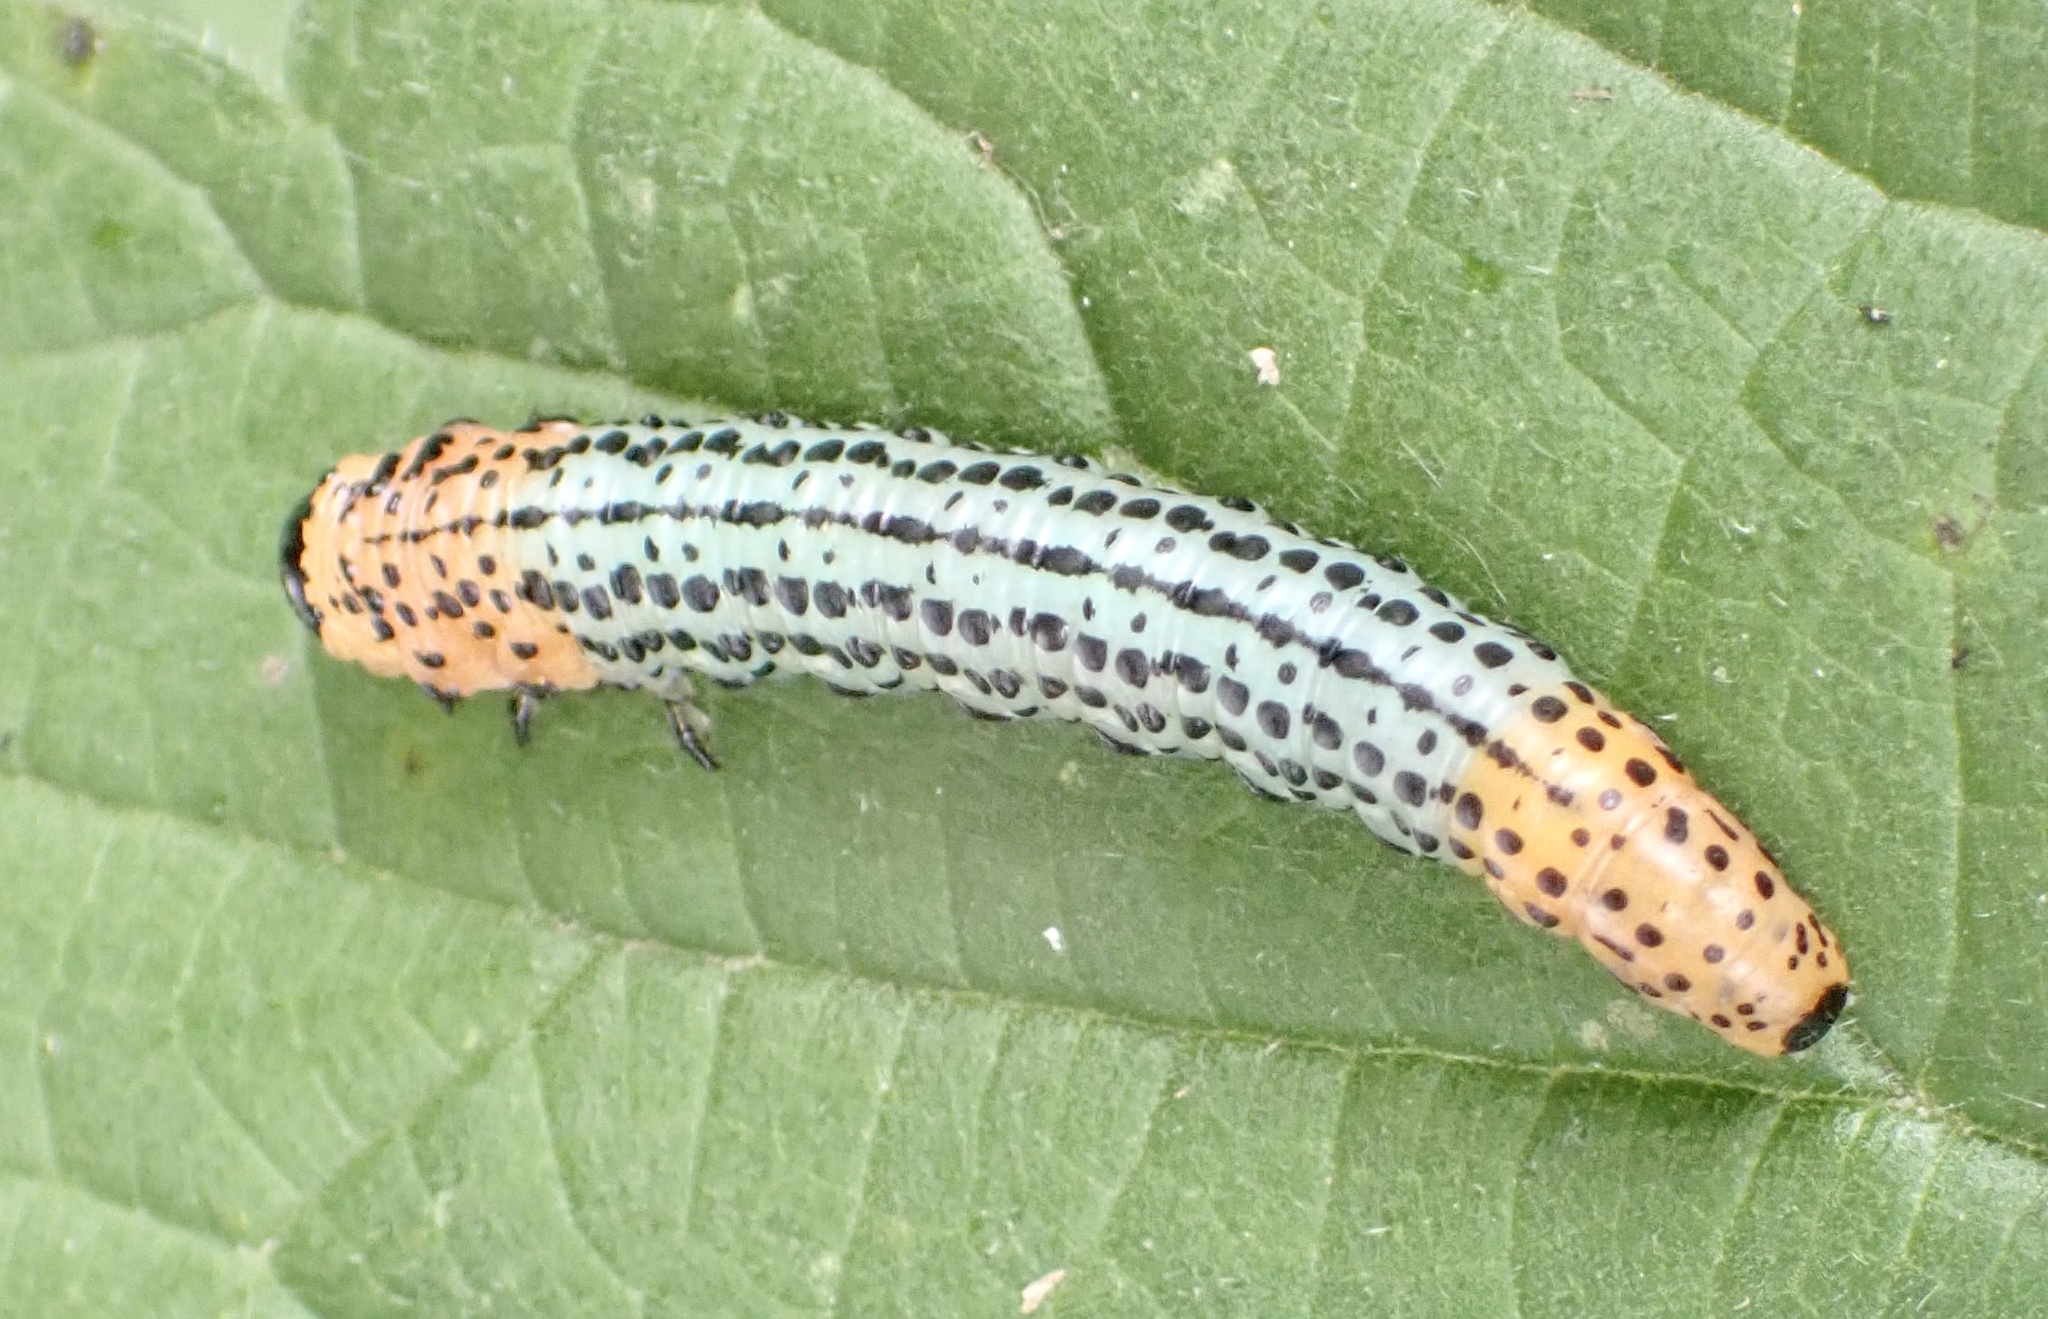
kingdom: Animalia
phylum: Arthropoda
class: Insecta
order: Hymenoptera
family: Tenthredinidae
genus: Nematus
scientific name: Nematus salicis
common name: Willow sawfly
